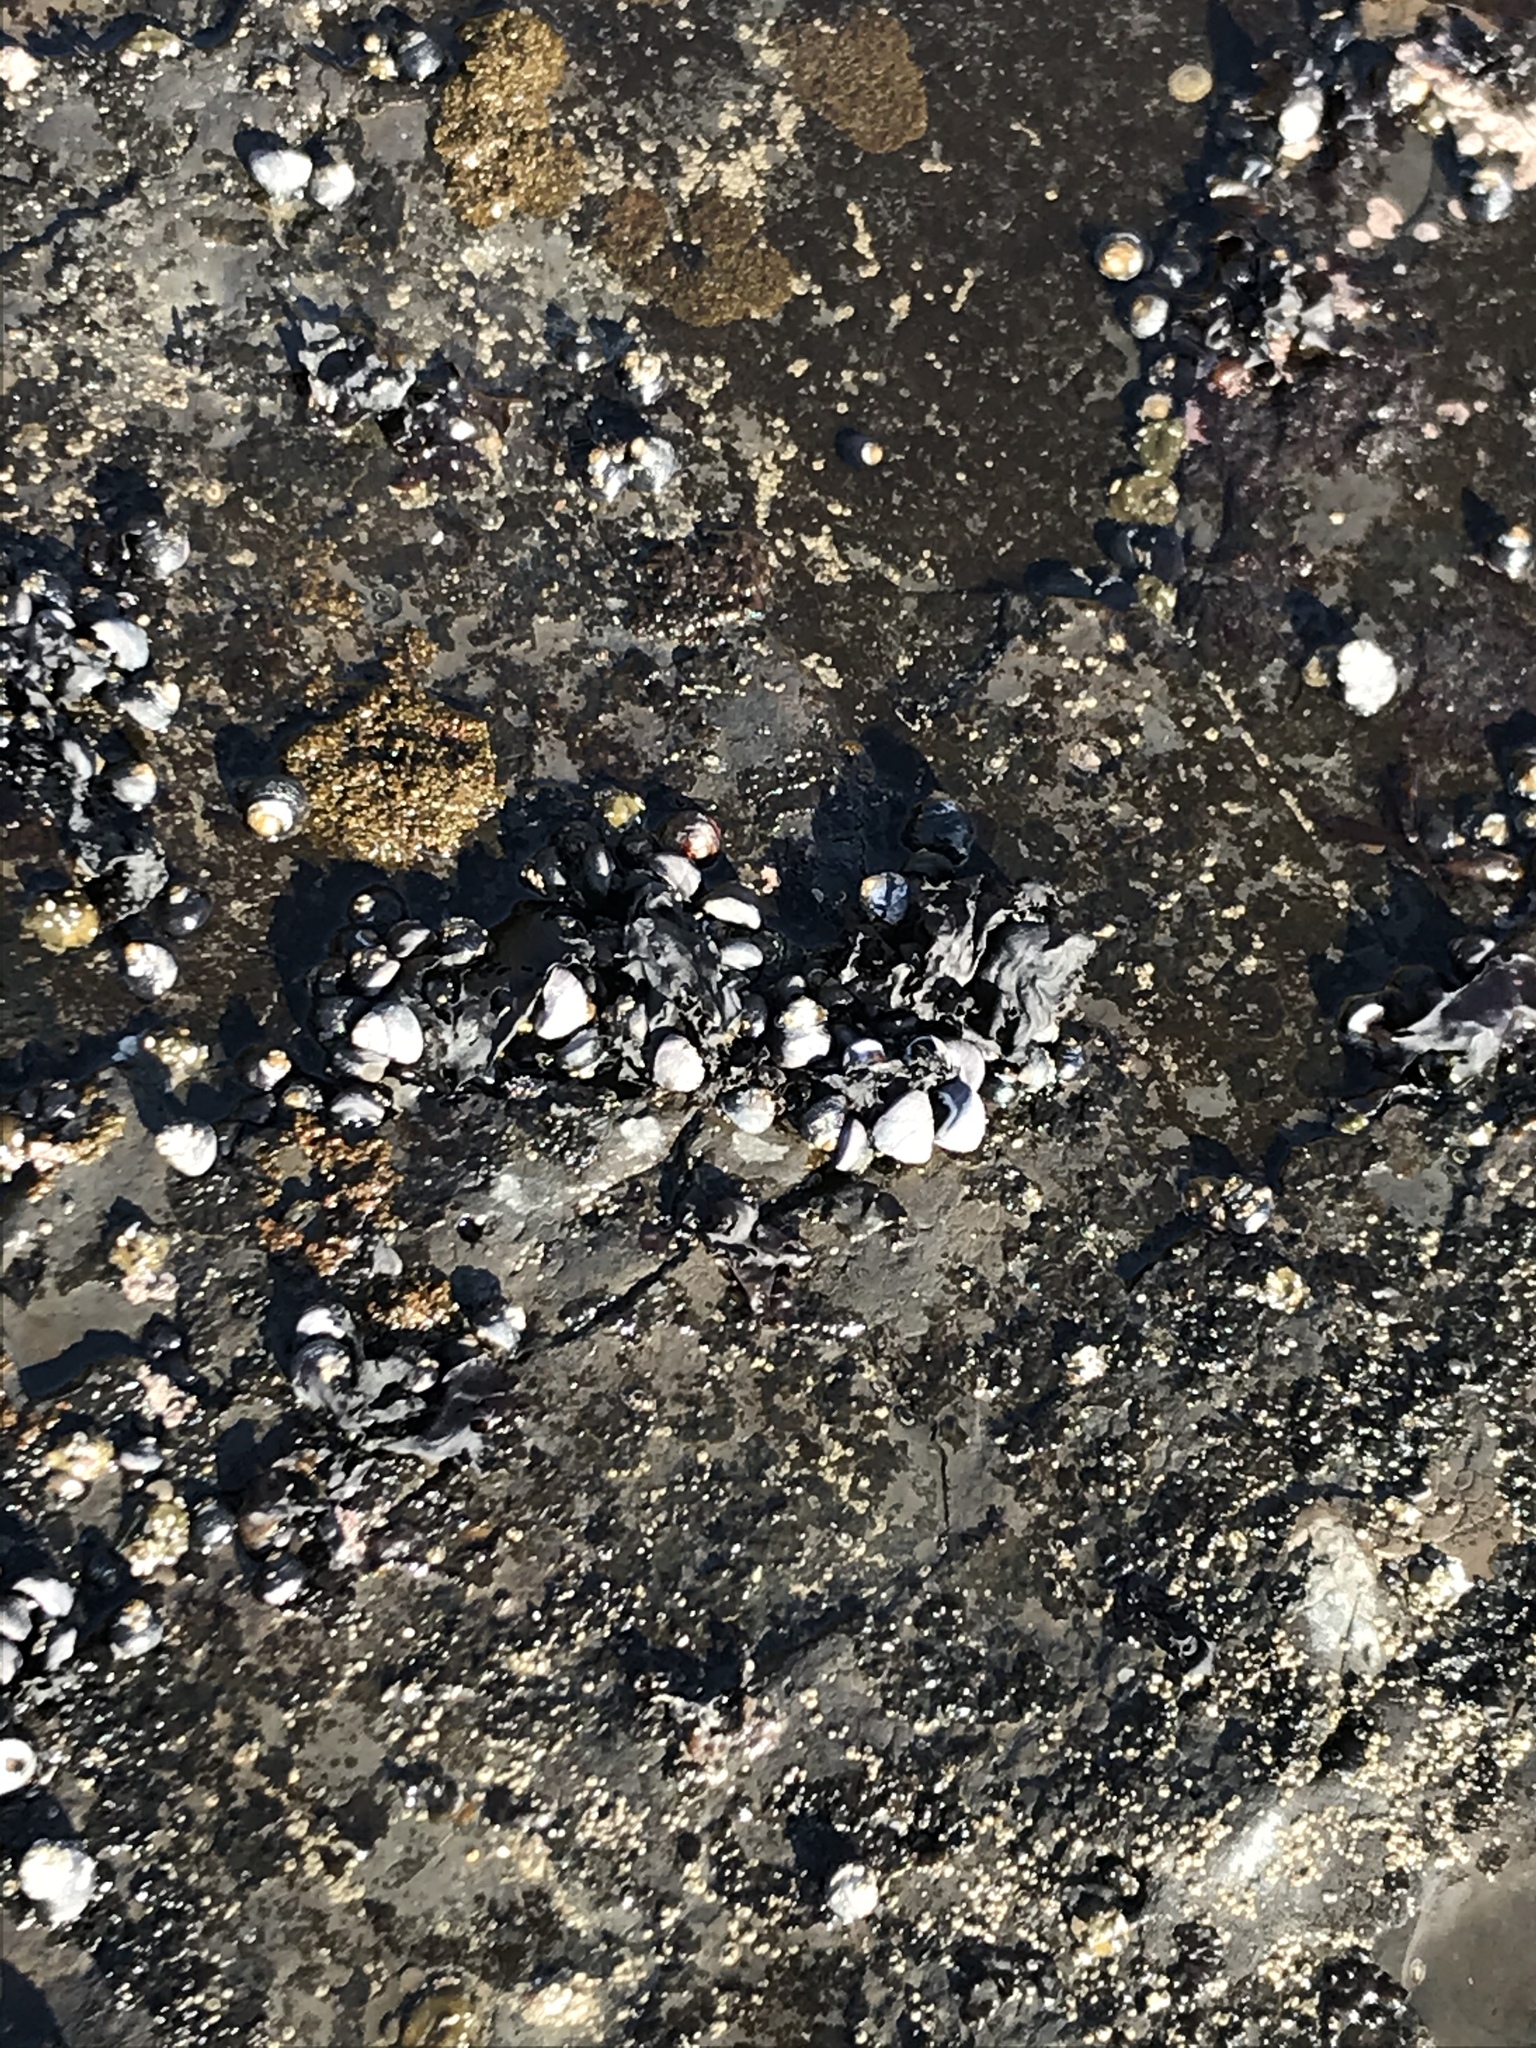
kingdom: Animalia
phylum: Mollusca
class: Gastropoda
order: Trochida
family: Tegulidae
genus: Tegula
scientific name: Tegula funebralis
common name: Black tegula
